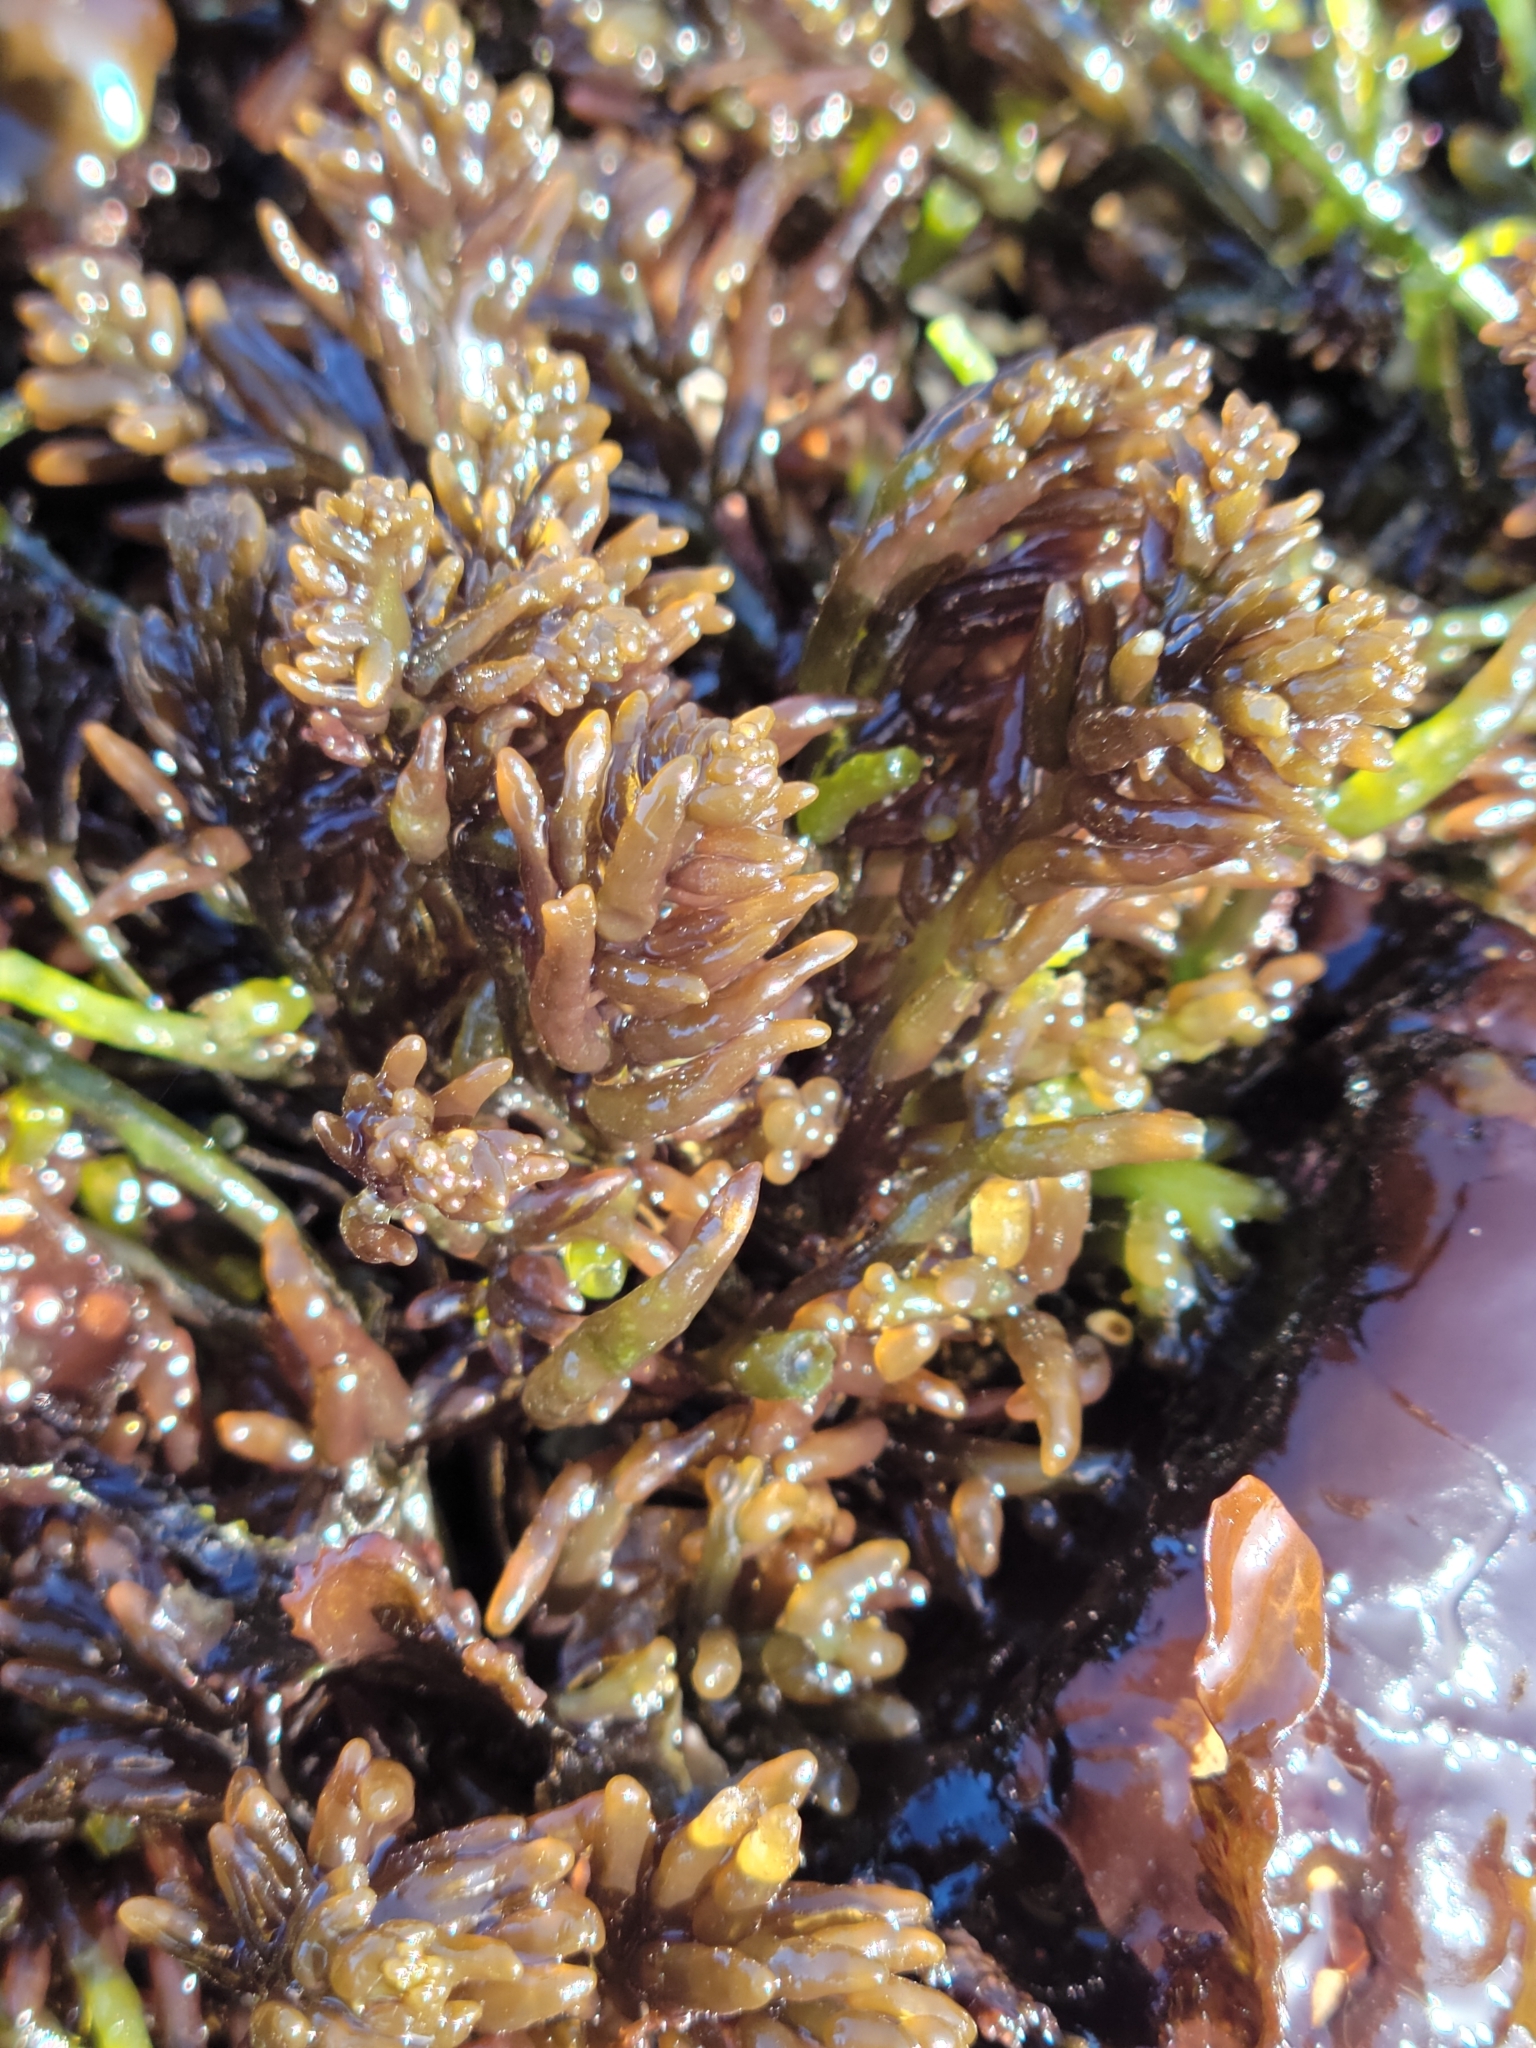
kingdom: Plantae
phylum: Rhodophyta
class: Florideophyceae
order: Rhodymeniales
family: Champiaceae
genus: Neogastroclonium
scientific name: Neogastroclonium subarticulatum
